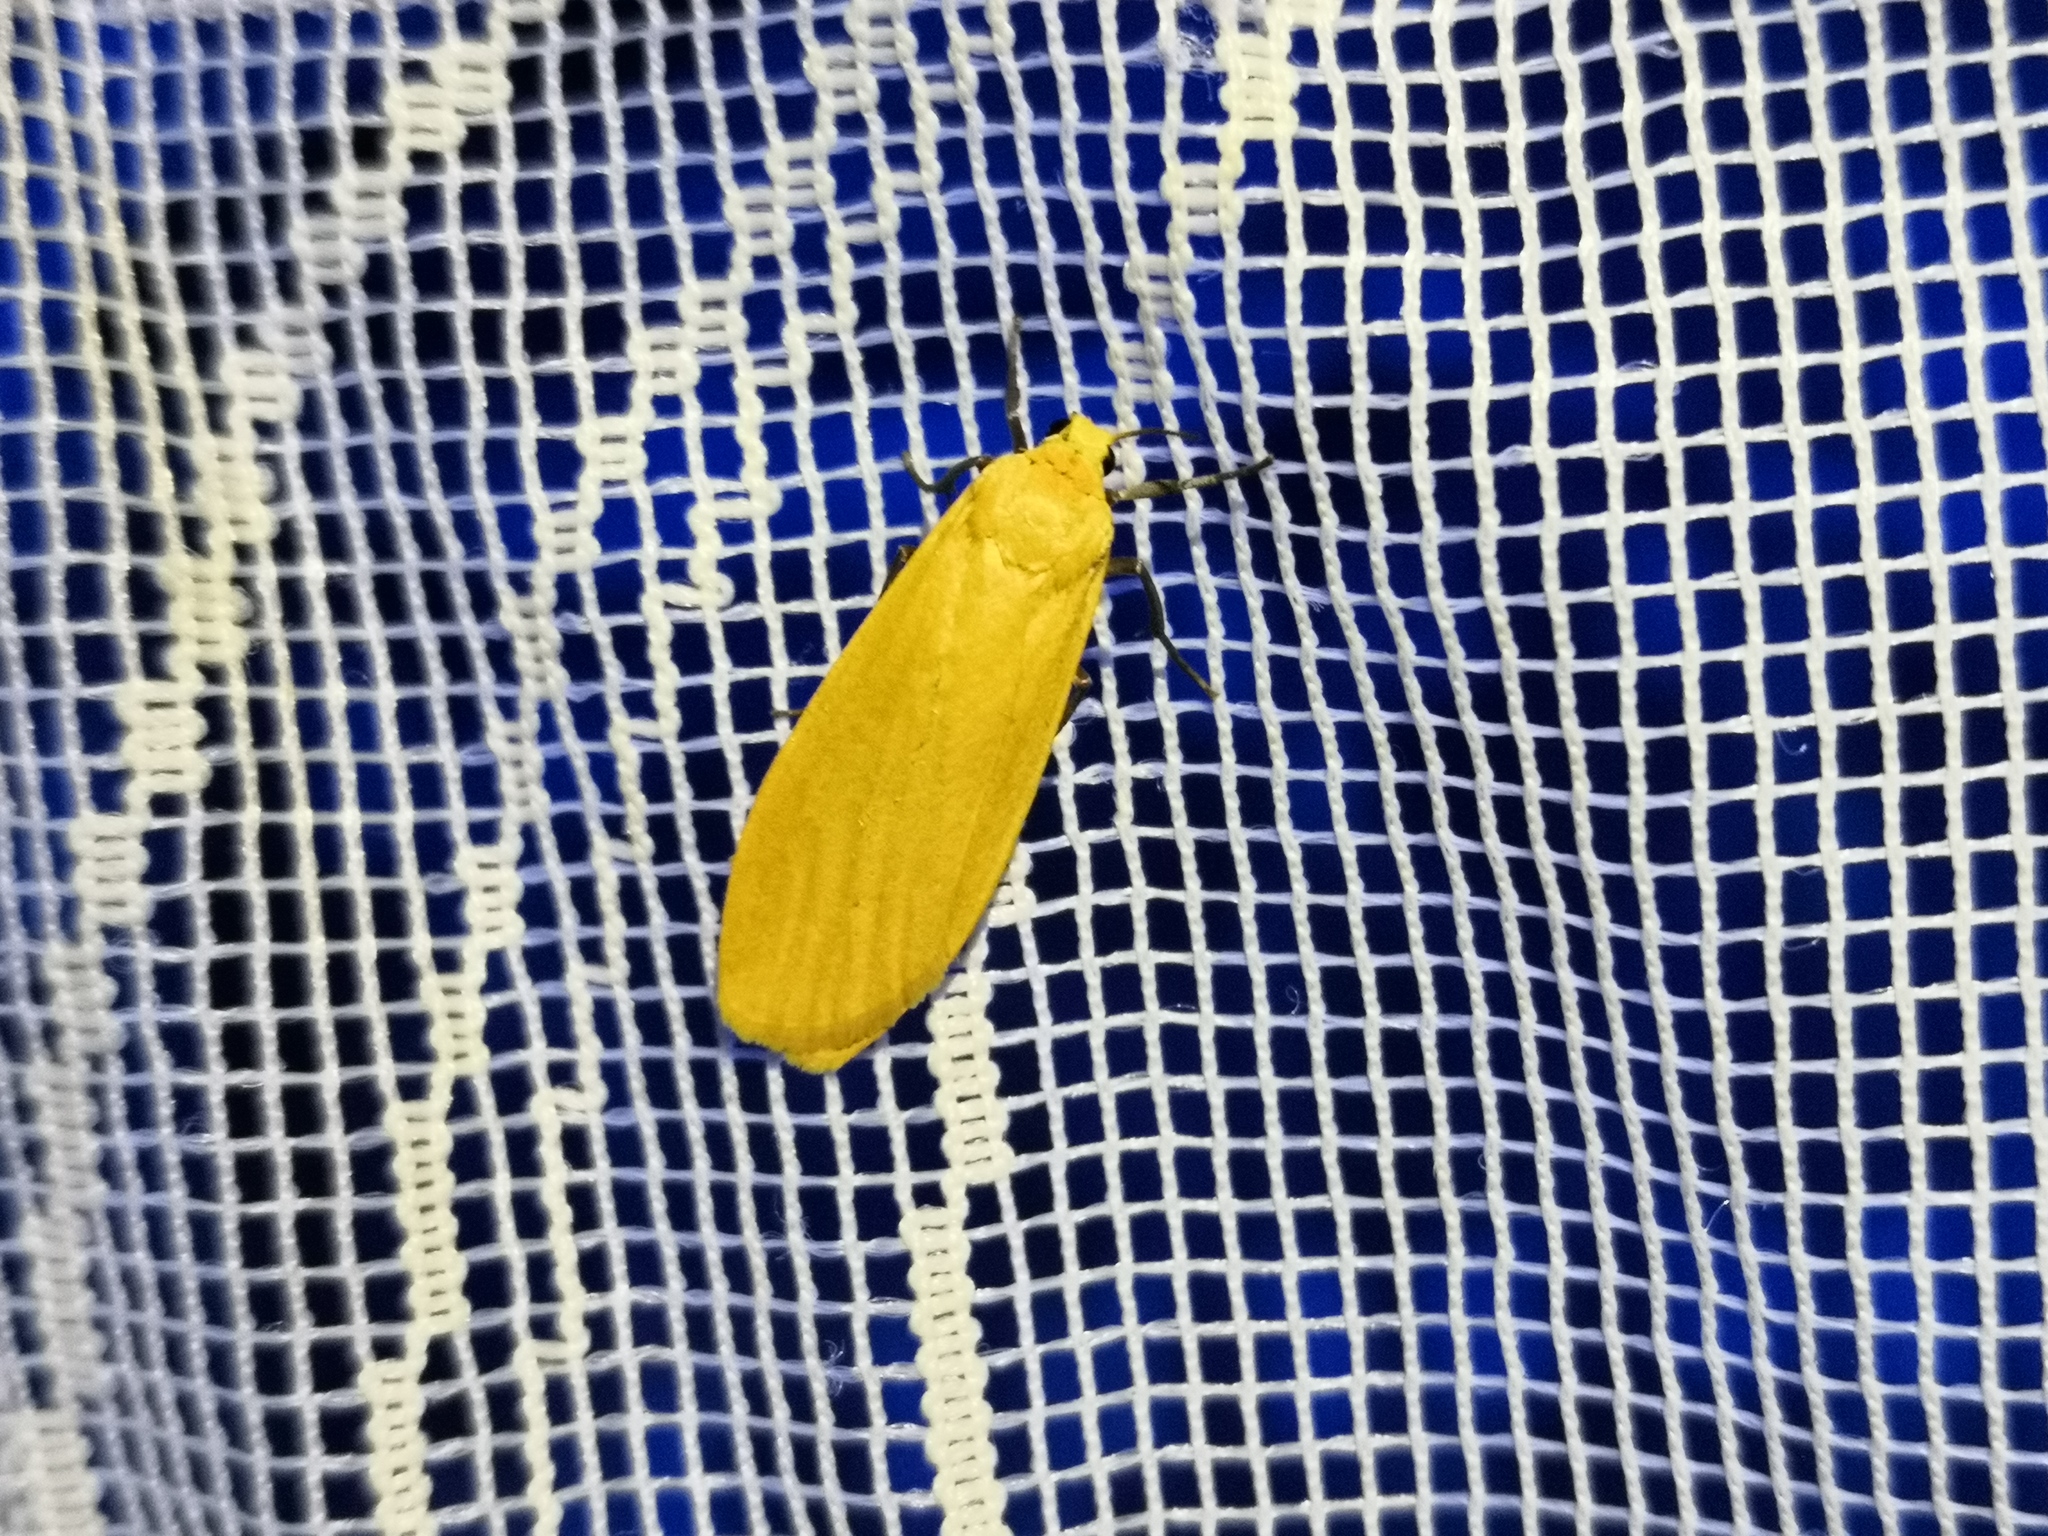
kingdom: Animalia
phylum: Arthropoda
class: Insecta
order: Lepidoptera
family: Erebidae
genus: Wittia
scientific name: Wittia sororcula
